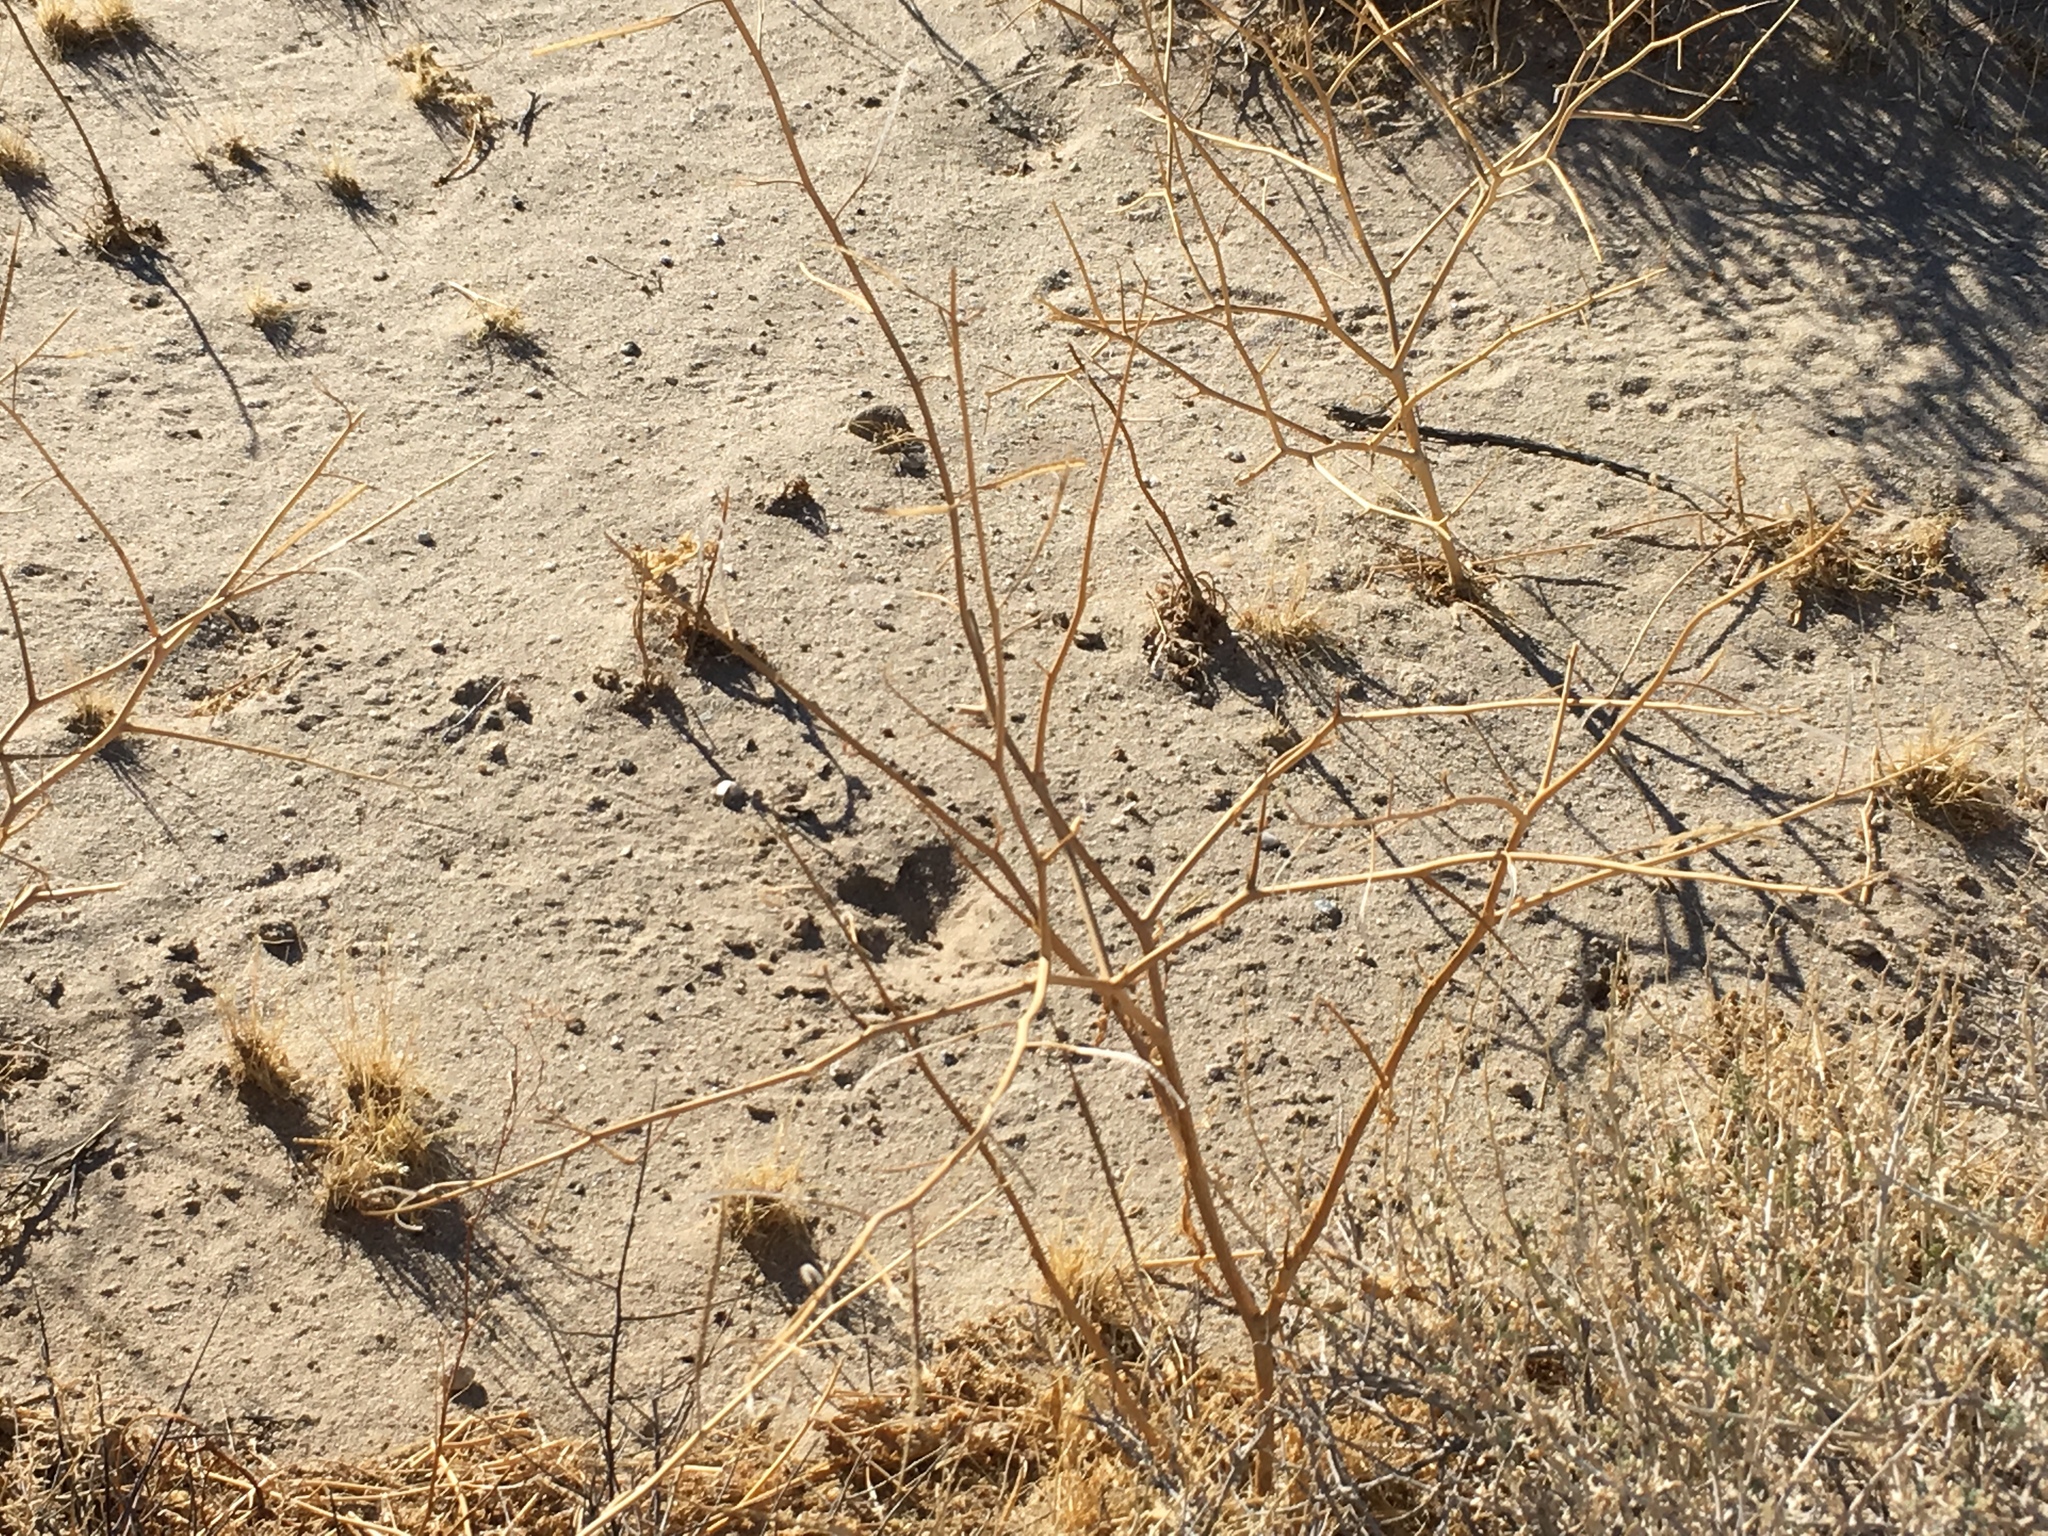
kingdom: Plantae
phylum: Tracheophyta
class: Magnoliopsida
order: Brassicales
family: Brassicaceae
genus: Brassica
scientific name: Brassica tournefortii
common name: Pale cabbage
